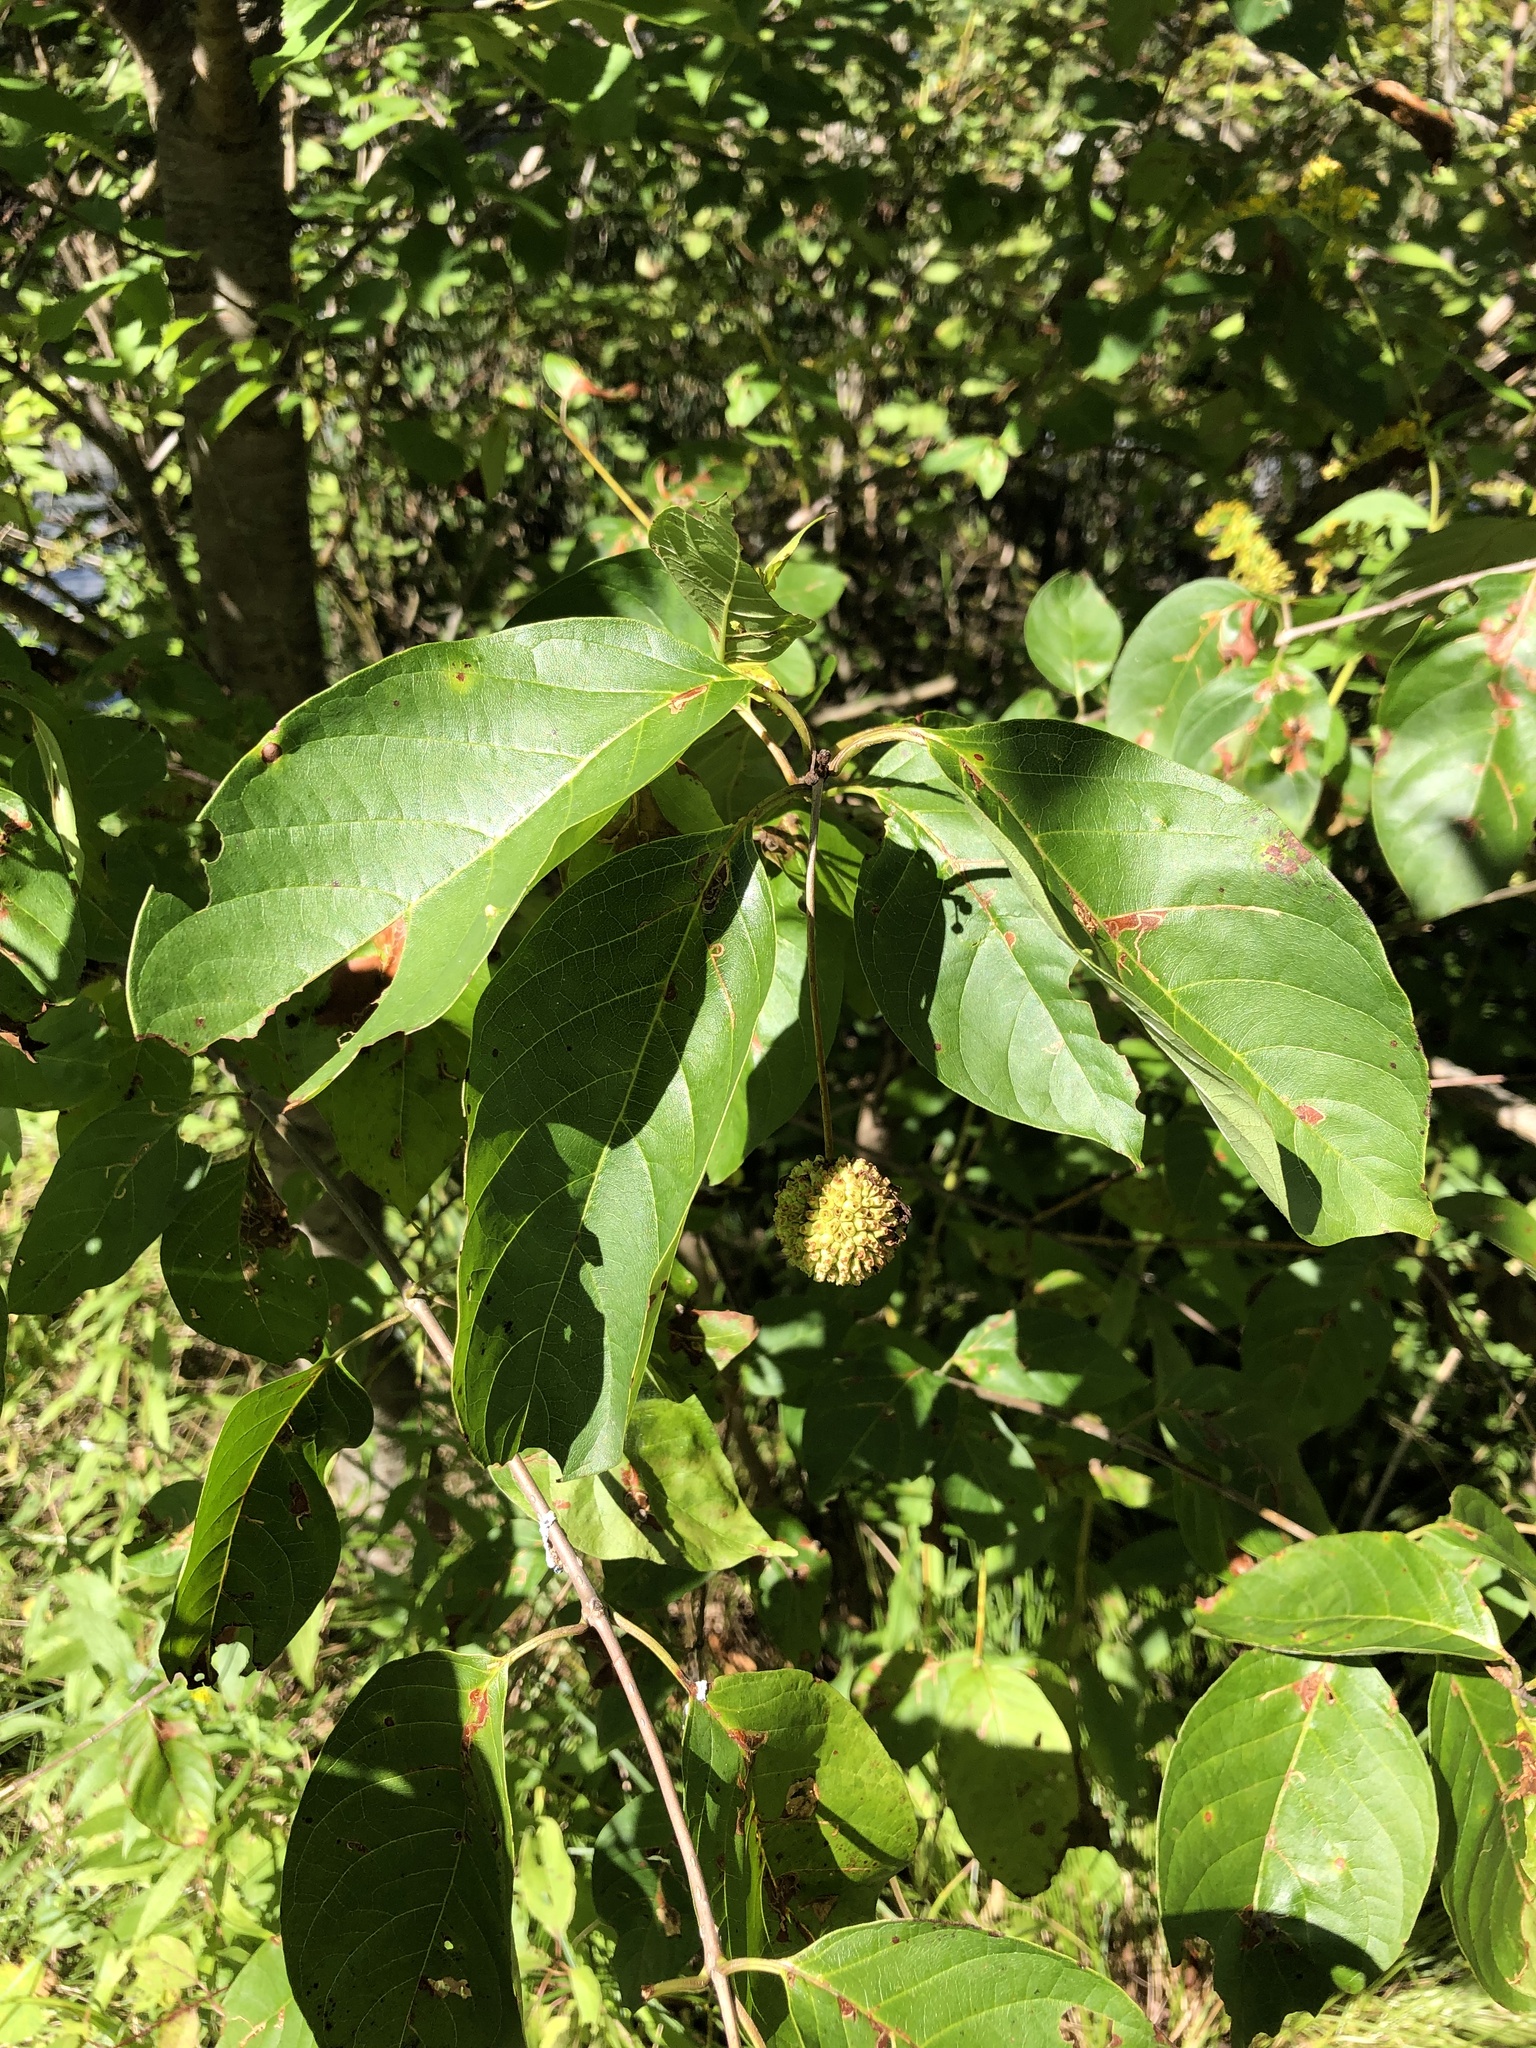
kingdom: Plantae
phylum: Tracheophyta
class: Magnoliopsida
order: Gentianales
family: Rubiaceae
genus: Cephalanthus
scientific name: Cephalanthus occidentalis
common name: Button-willow
